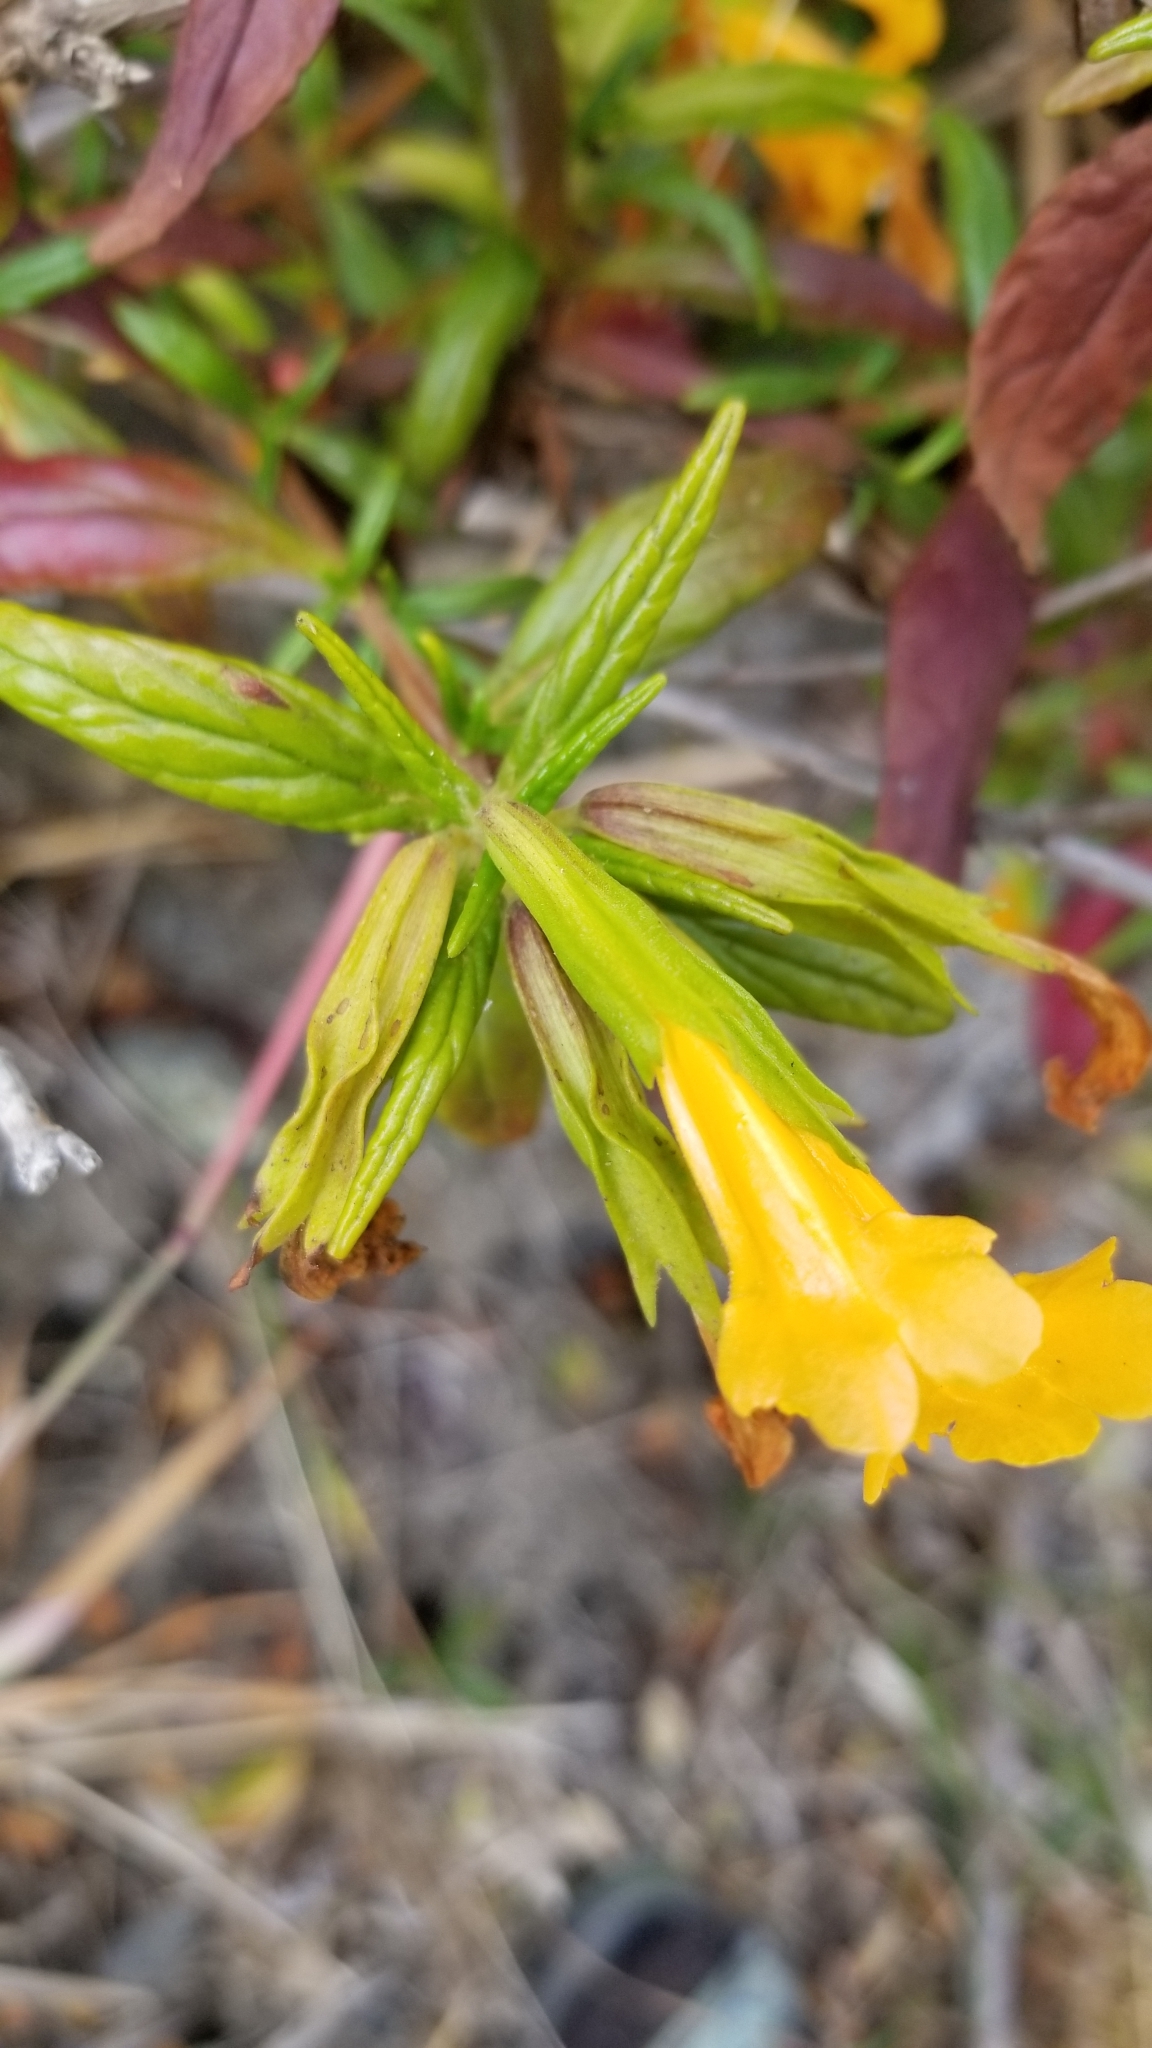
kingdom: Plantae
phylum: Tracheophyta
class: Magnoliopsida
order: Lamiales
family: Phrymaceae
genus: Diplacus
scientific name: Diplacus aurantiacus
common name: Bush monkey-flower
